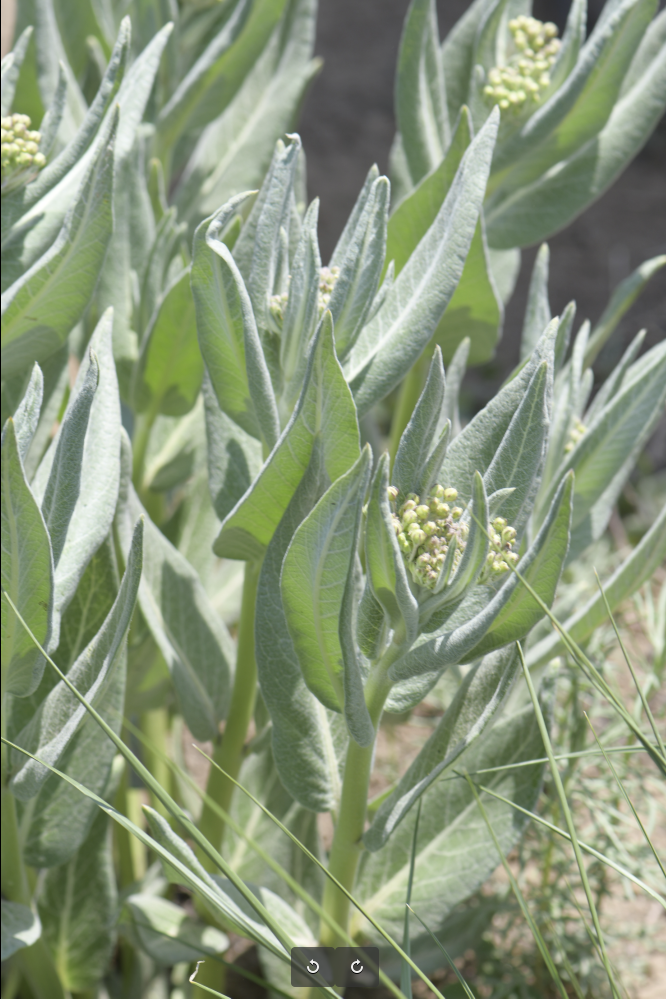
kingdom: Plantae
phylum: Tracheophyta
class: Magnoliopsida
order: Gentianales
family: Apocynaceae
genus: Asclepias
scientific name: Asclepias scheryi
